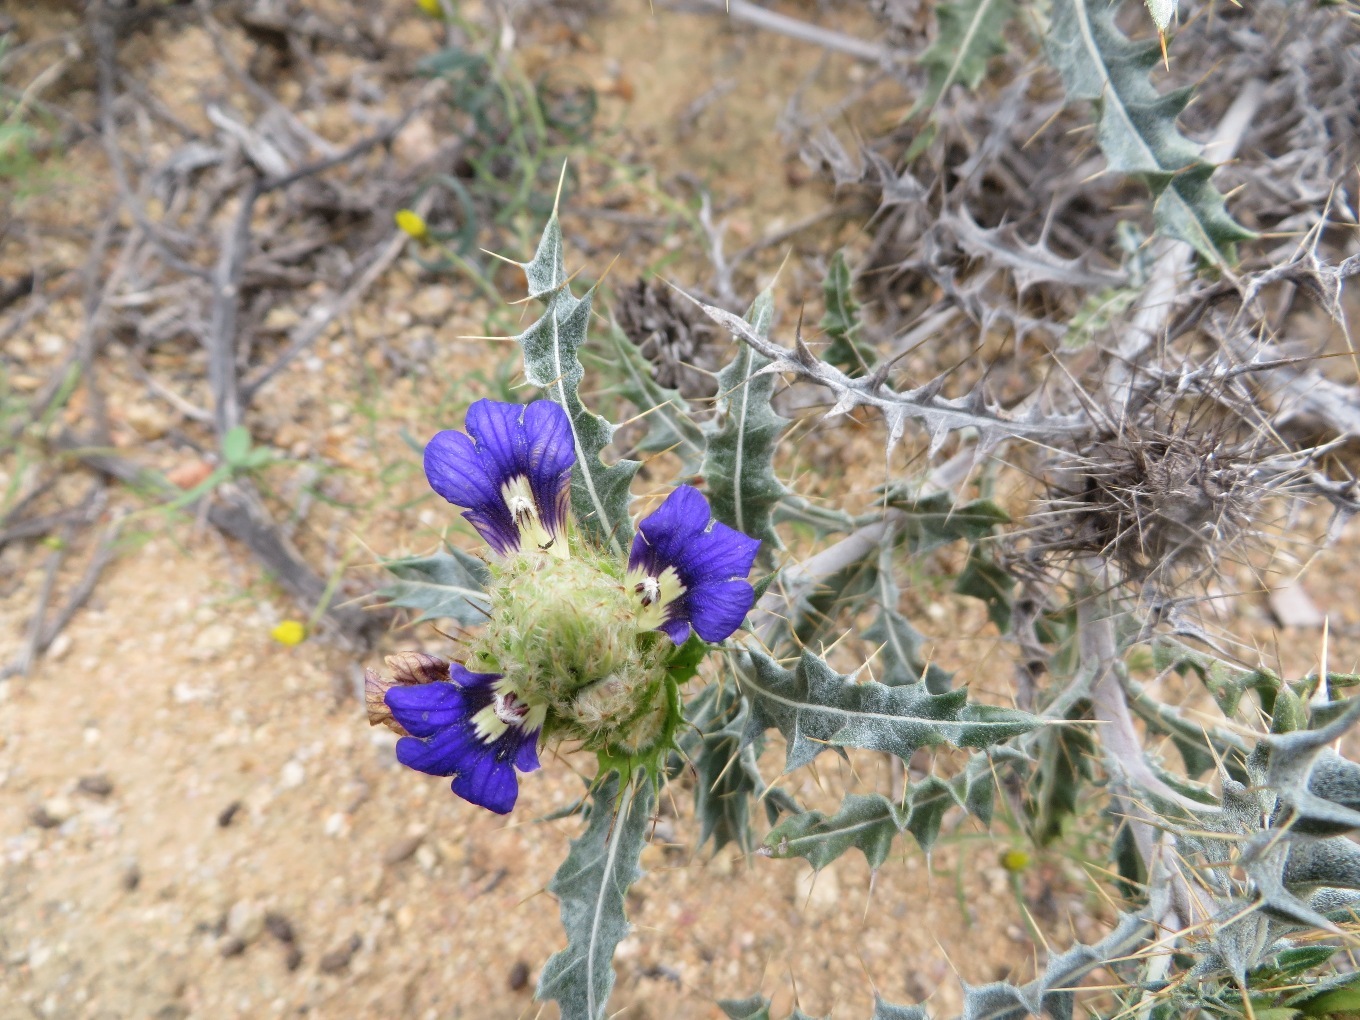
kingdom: Plantae
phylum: Tracheophyta
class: Magnoliopsida
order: Lamiales
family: Acanthaceae
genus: Acanthopsis
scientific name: Acanthopsis horrida
